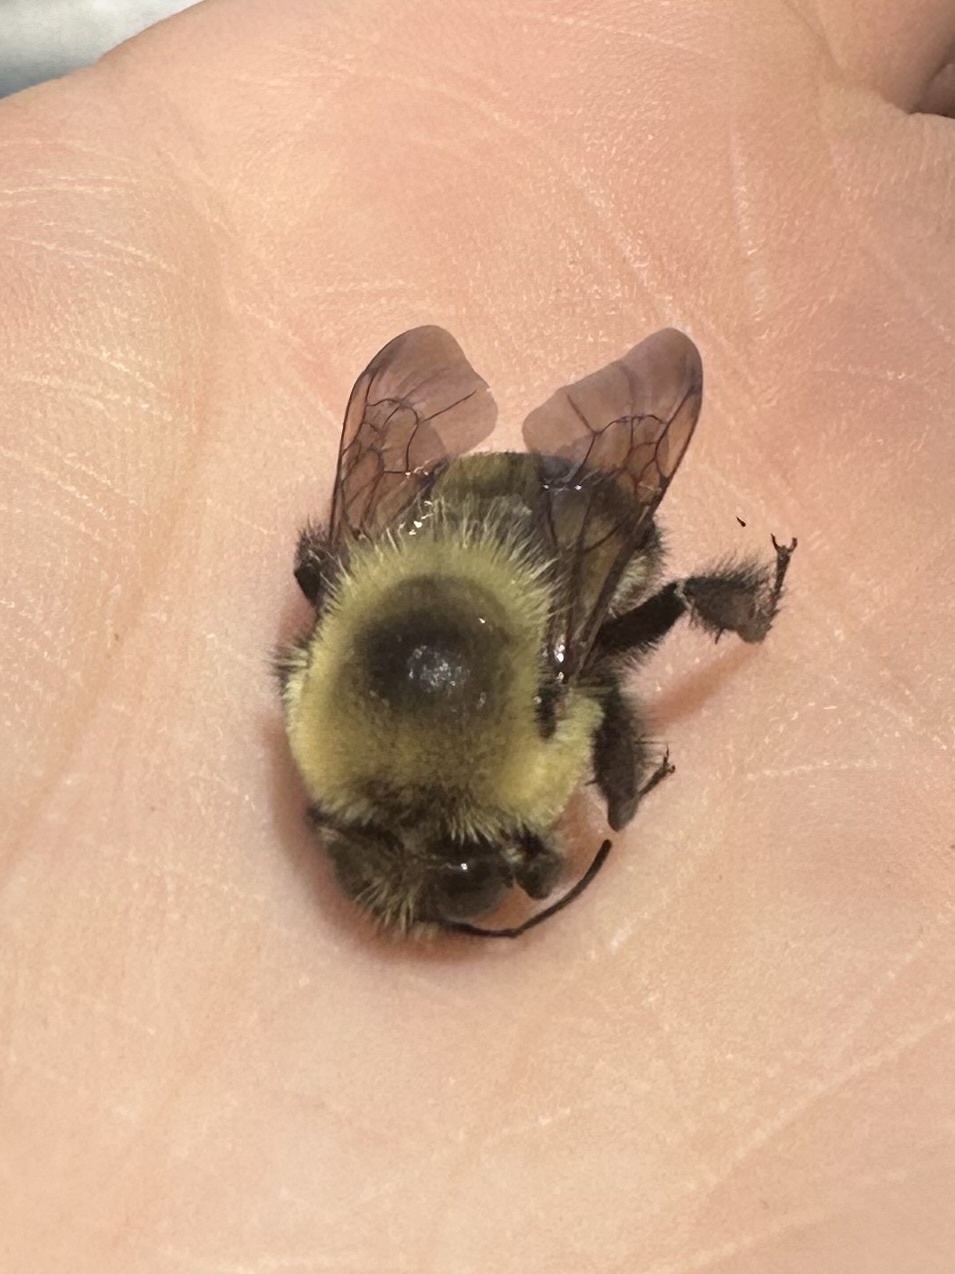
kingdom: Animalia
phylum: Arthropoda
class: Insecta
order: Hymenoptera
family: Apidae
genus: Bombus
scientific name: Bombus griseocollis
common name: Brown-belted bumble bee
